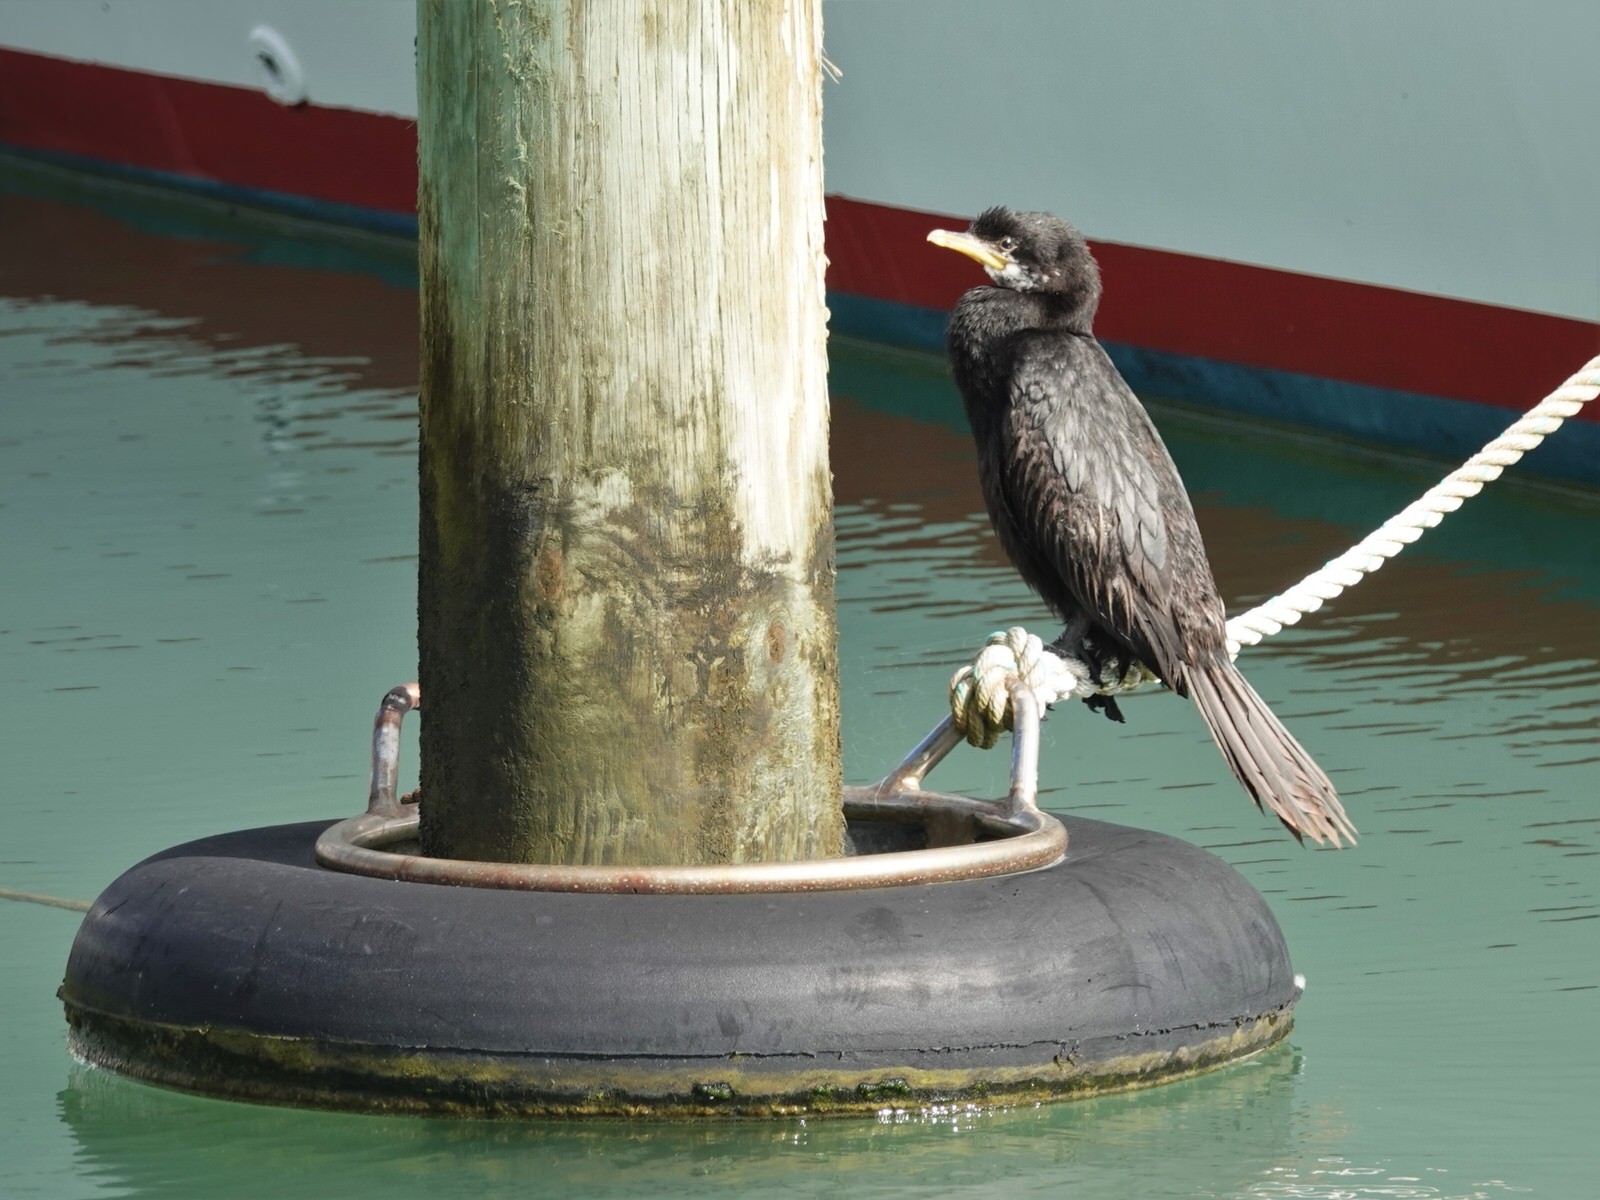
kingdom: Animalia
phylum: Chordata
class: Aves
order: Suliformes
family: Phalacrocoracidae
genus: Microcarbo
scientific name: Microcarbo melanoleucos
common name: Little pied cormorant
